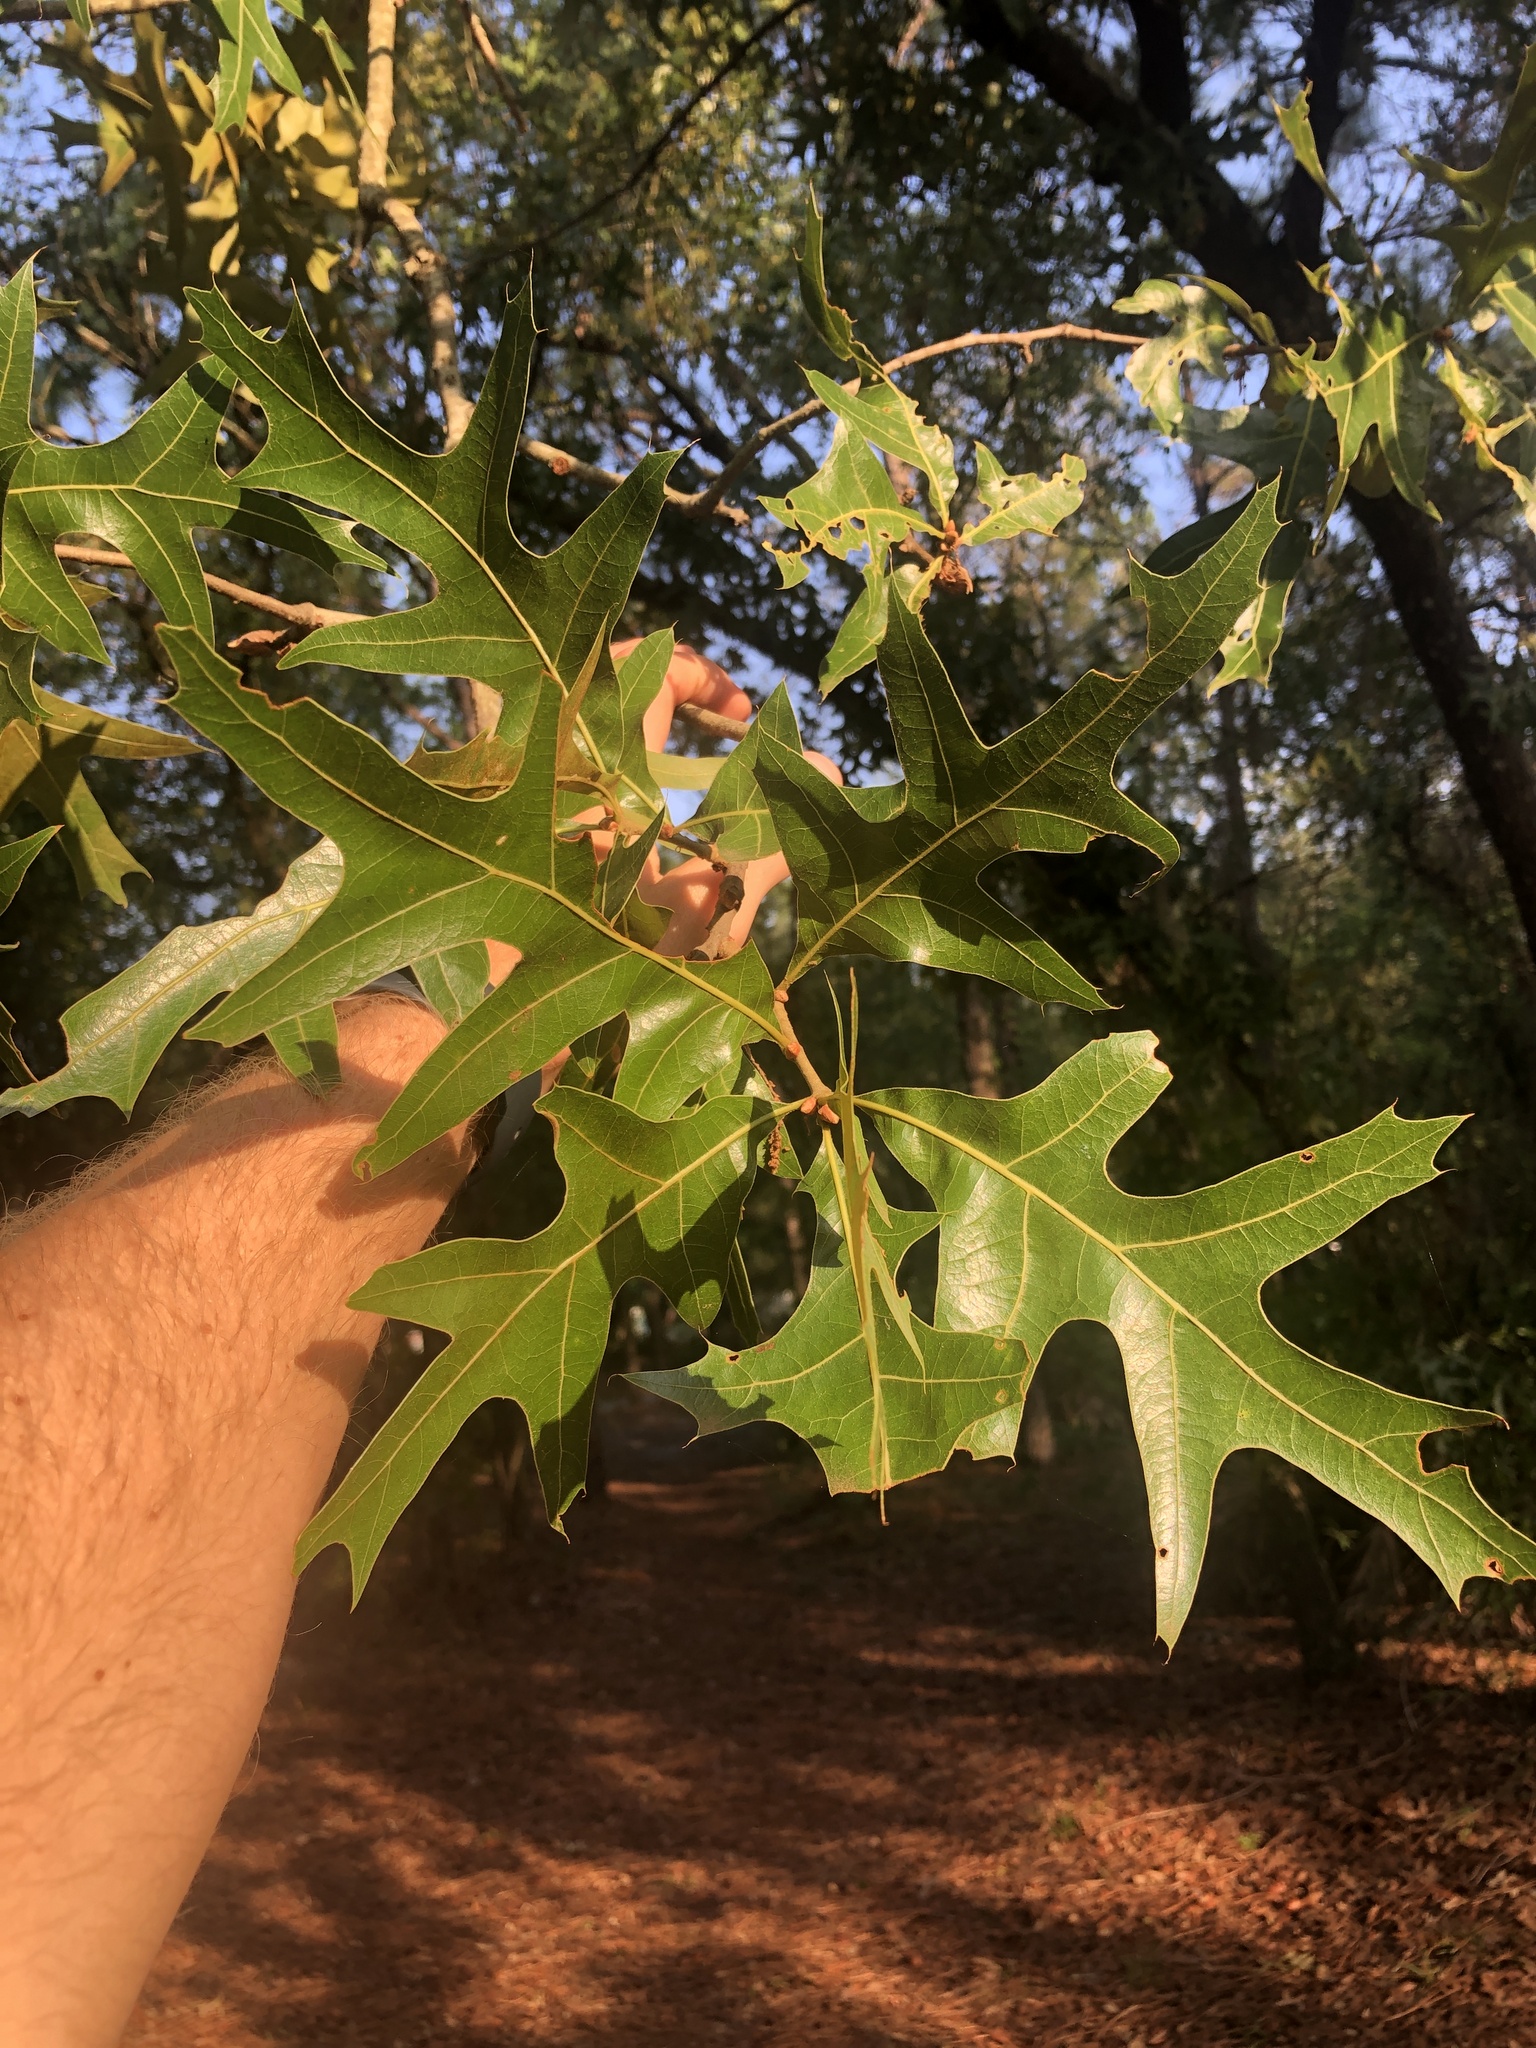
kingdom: Plantae
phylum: Tracheophyta
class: Magnoliopsida
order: Fagales
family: Fagaceae
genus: Quercus
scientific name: Quercus laevis
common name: Turkey oak
